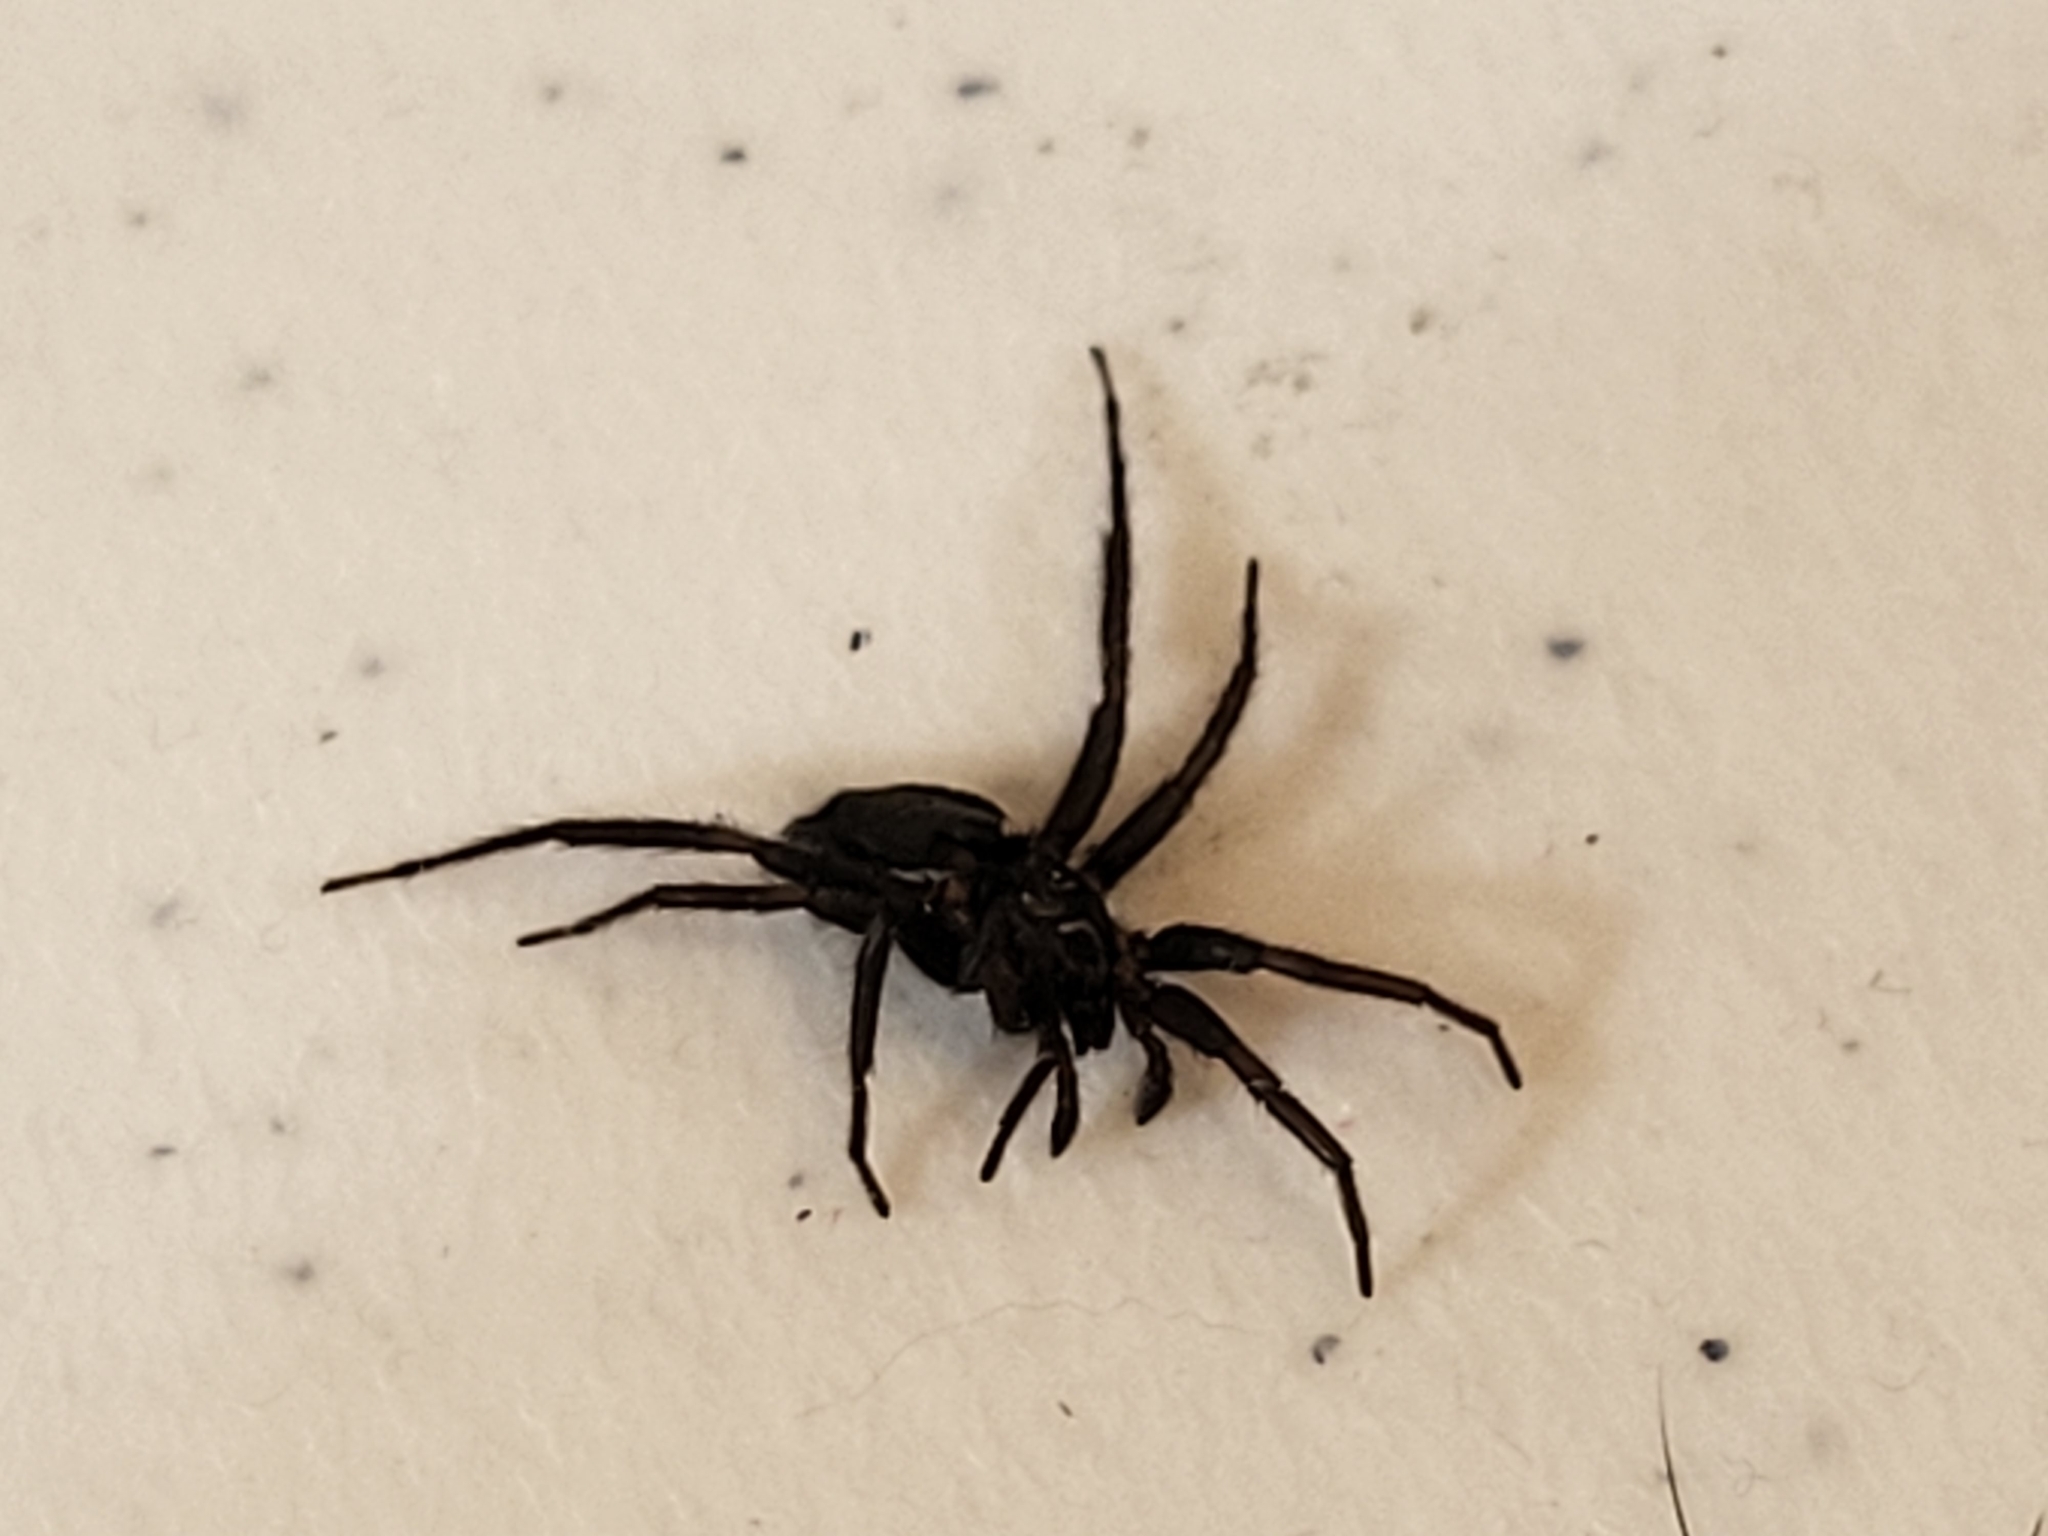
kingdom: Animalia
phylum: Arthropoda
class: Arachnida
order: Araneae
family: Gnaphosidae
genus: Herpyllus
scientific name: Herpyllus ecclesiasticus
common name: Eastern parson spider
